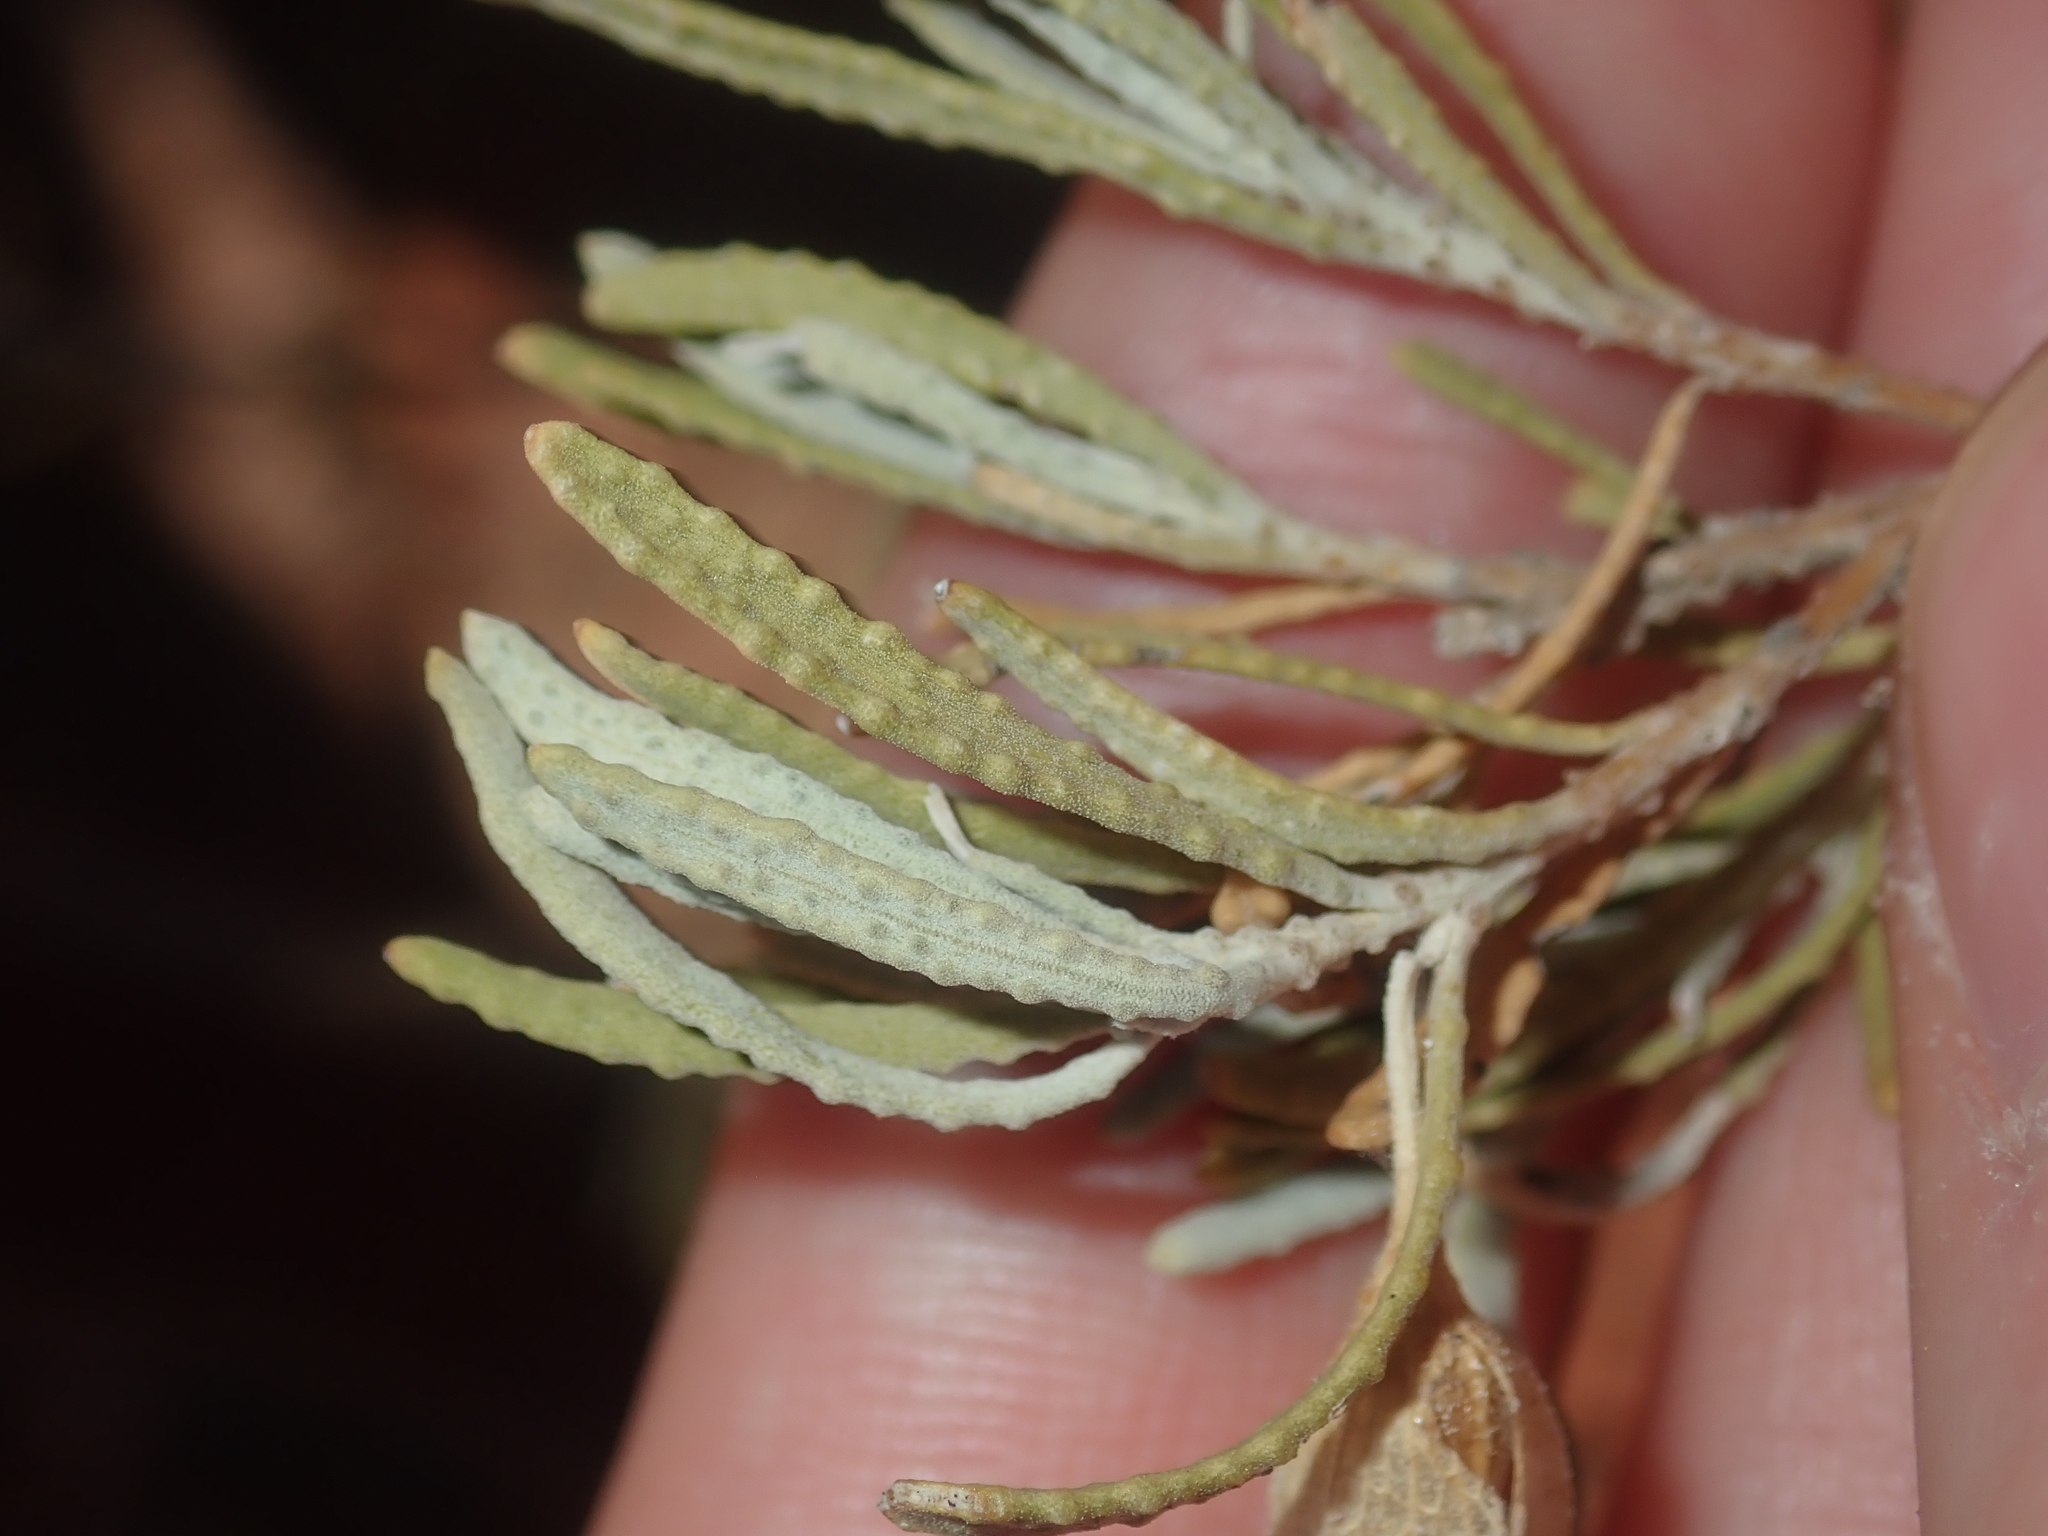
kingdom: Plantae
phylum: Tracheophyta
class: Magnoliopsida
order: Lamiales
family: Scrophulariaceae
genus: Eremophila
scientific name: Eremophila latrobei
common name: Crimson turkeybush
